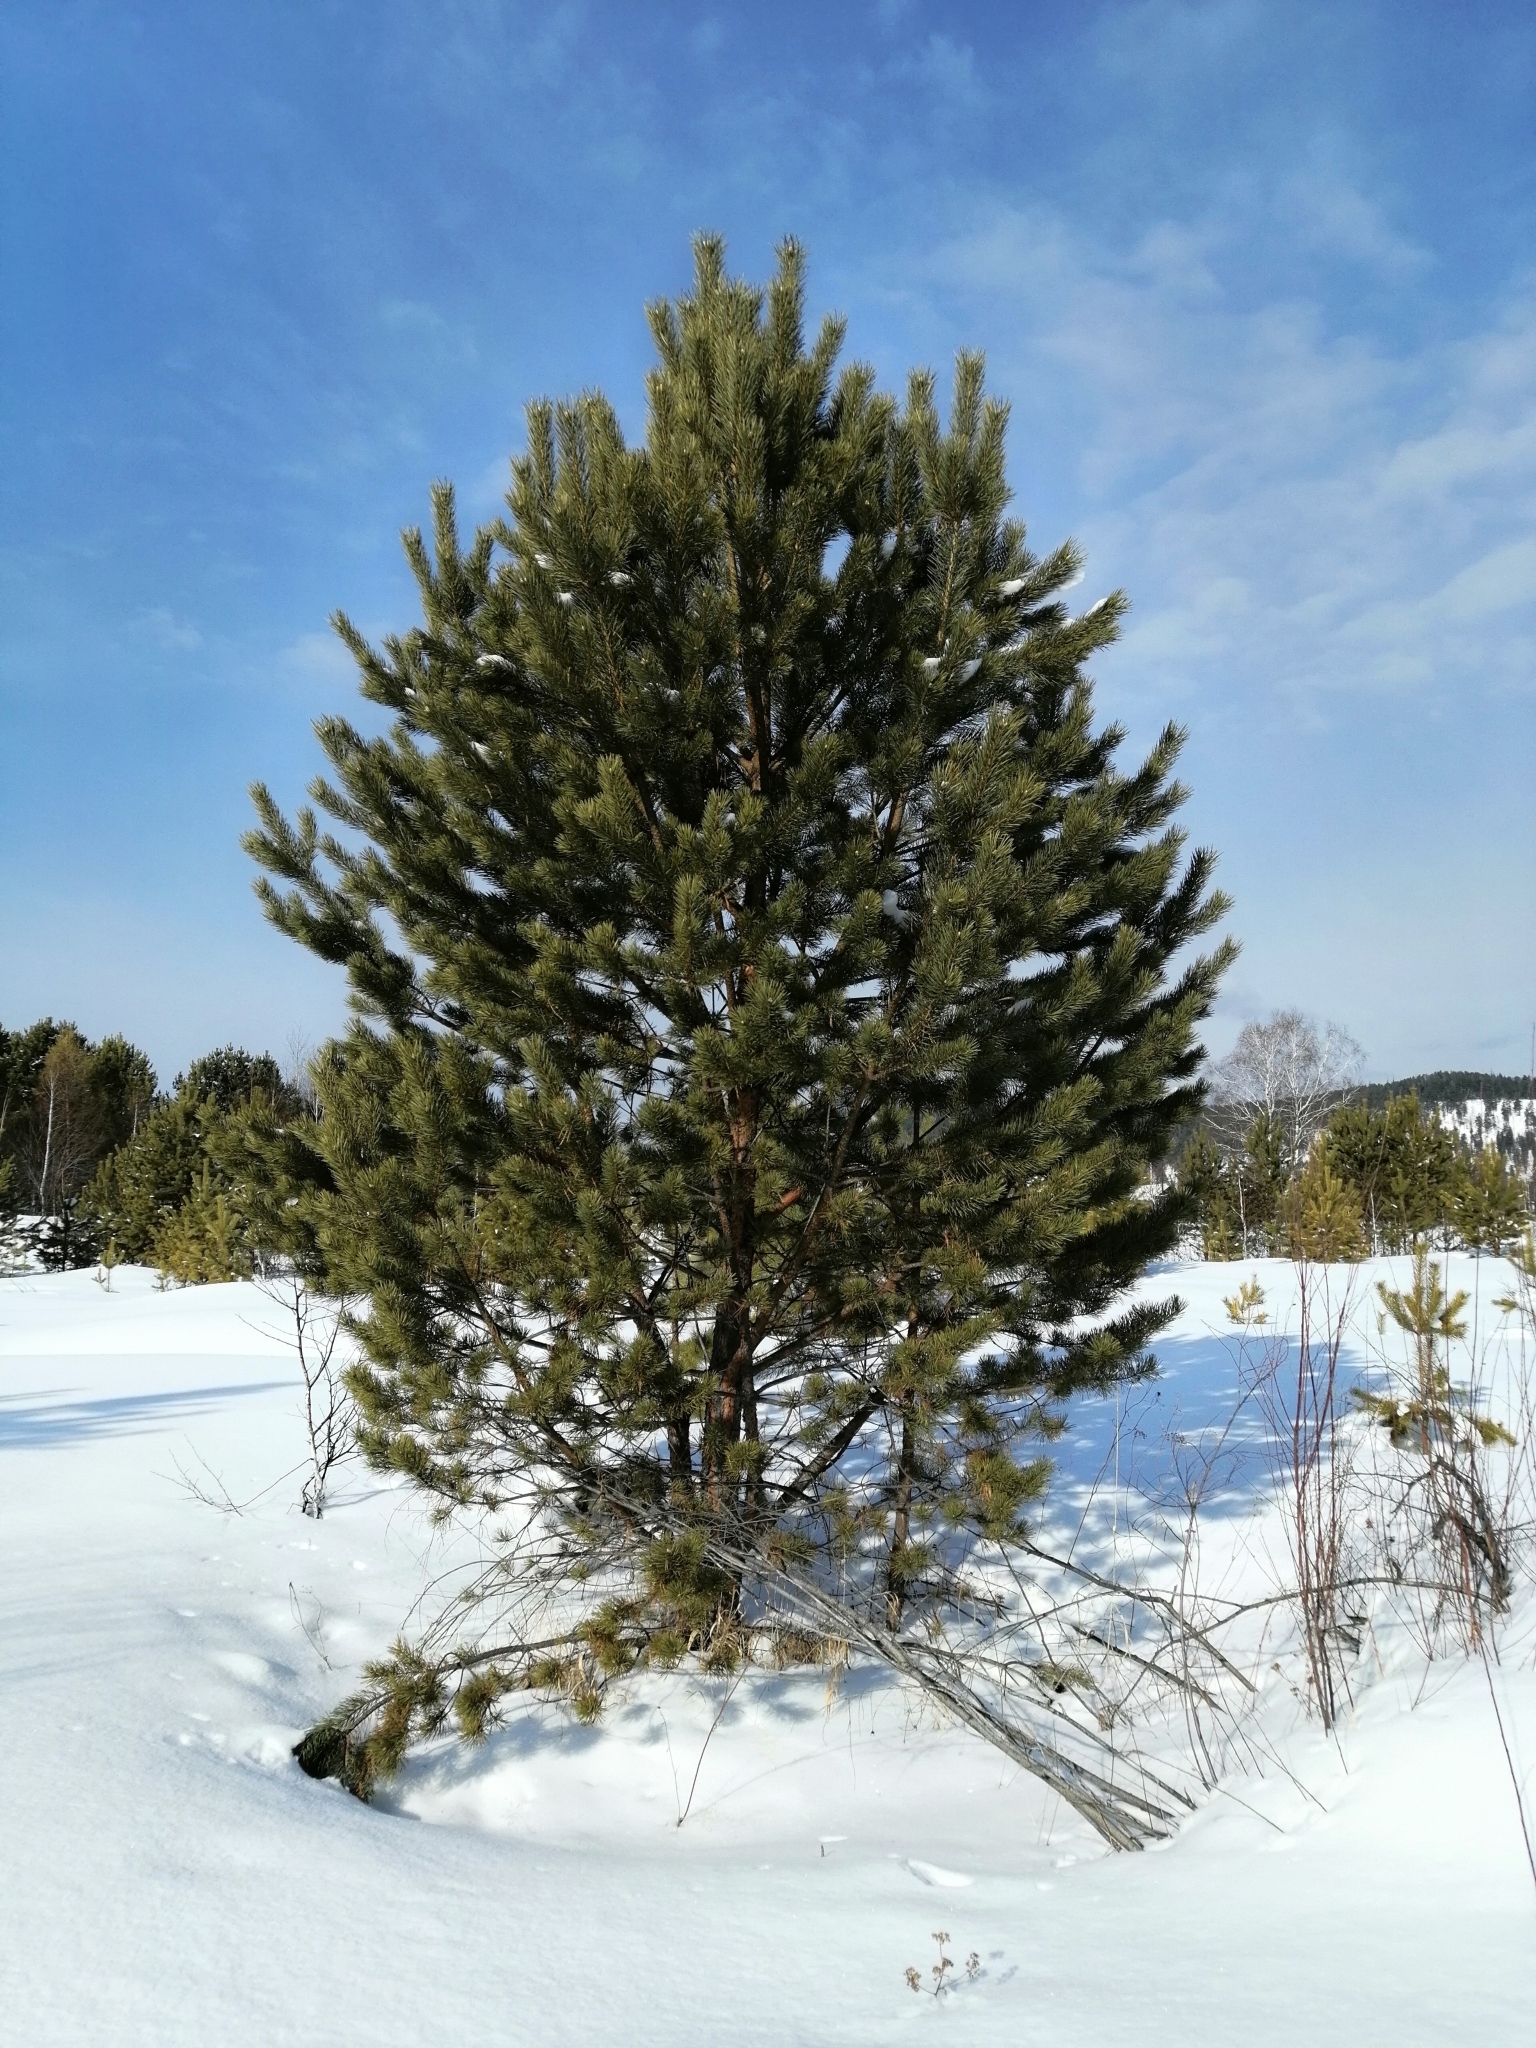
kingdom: Plantae
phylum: Tracheophyta
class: Pinopsida
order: Pinales
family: Pinaceae
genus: Pinus
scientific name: Pinus sylvestris
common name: Scots pine
